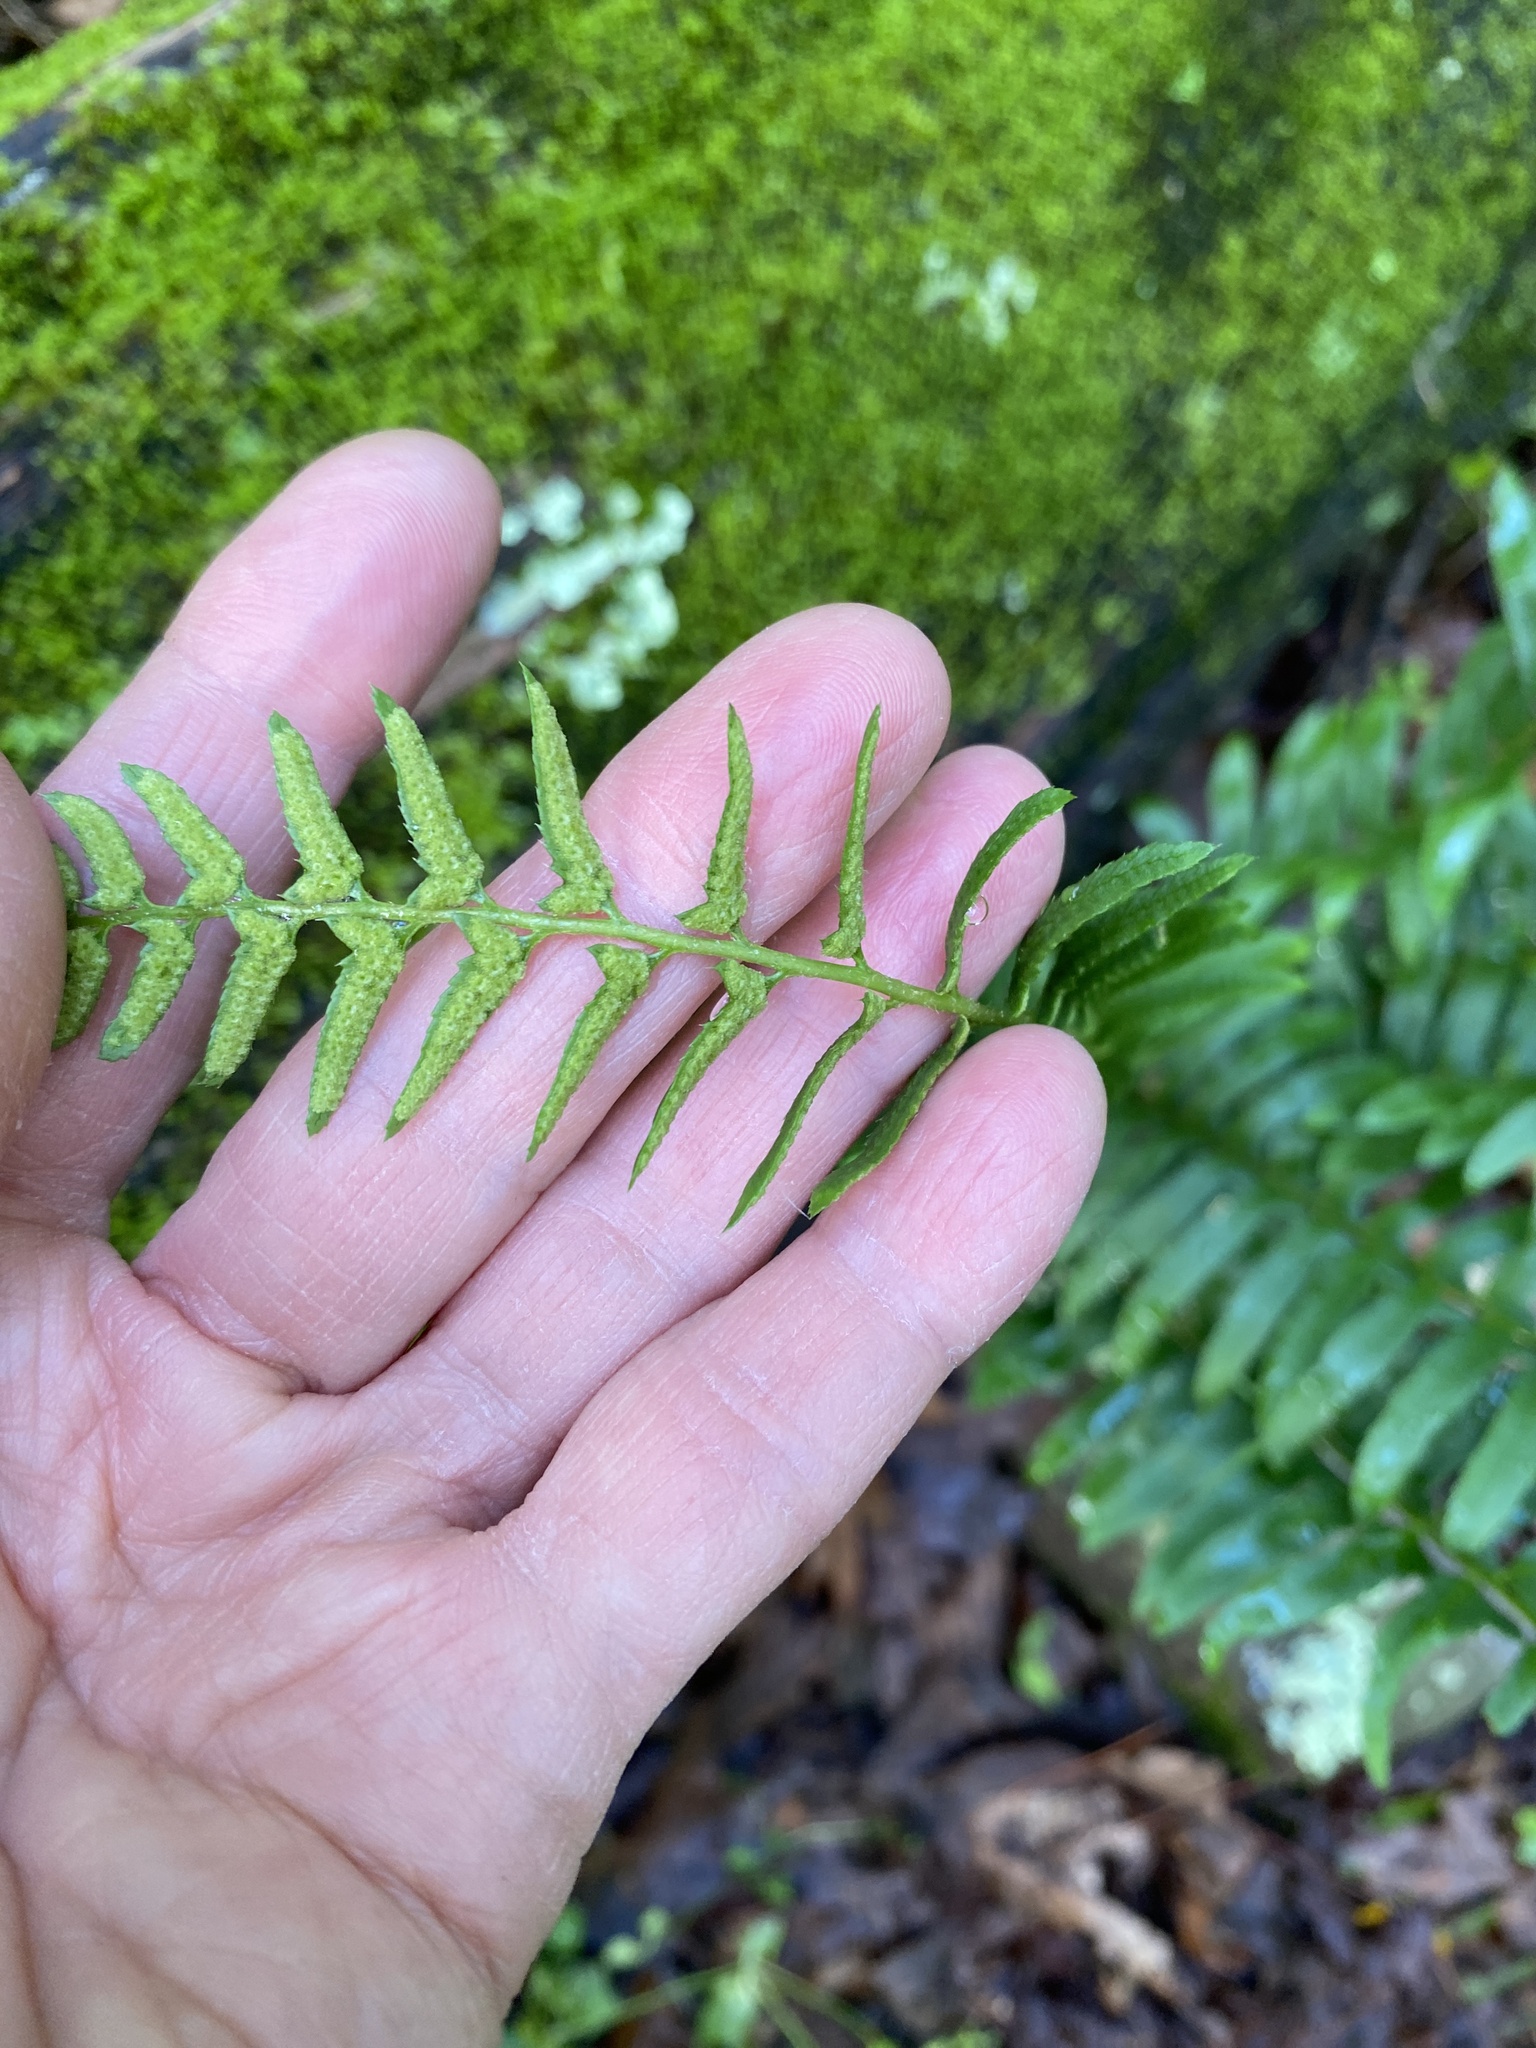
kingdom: Plantae
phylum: Tracheophyta
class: Polypodiopsida
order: Polypodiales
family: Dryopteridaceae
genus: Polystichum
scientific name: Polystichum acrostichoides
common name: Christmas fern
